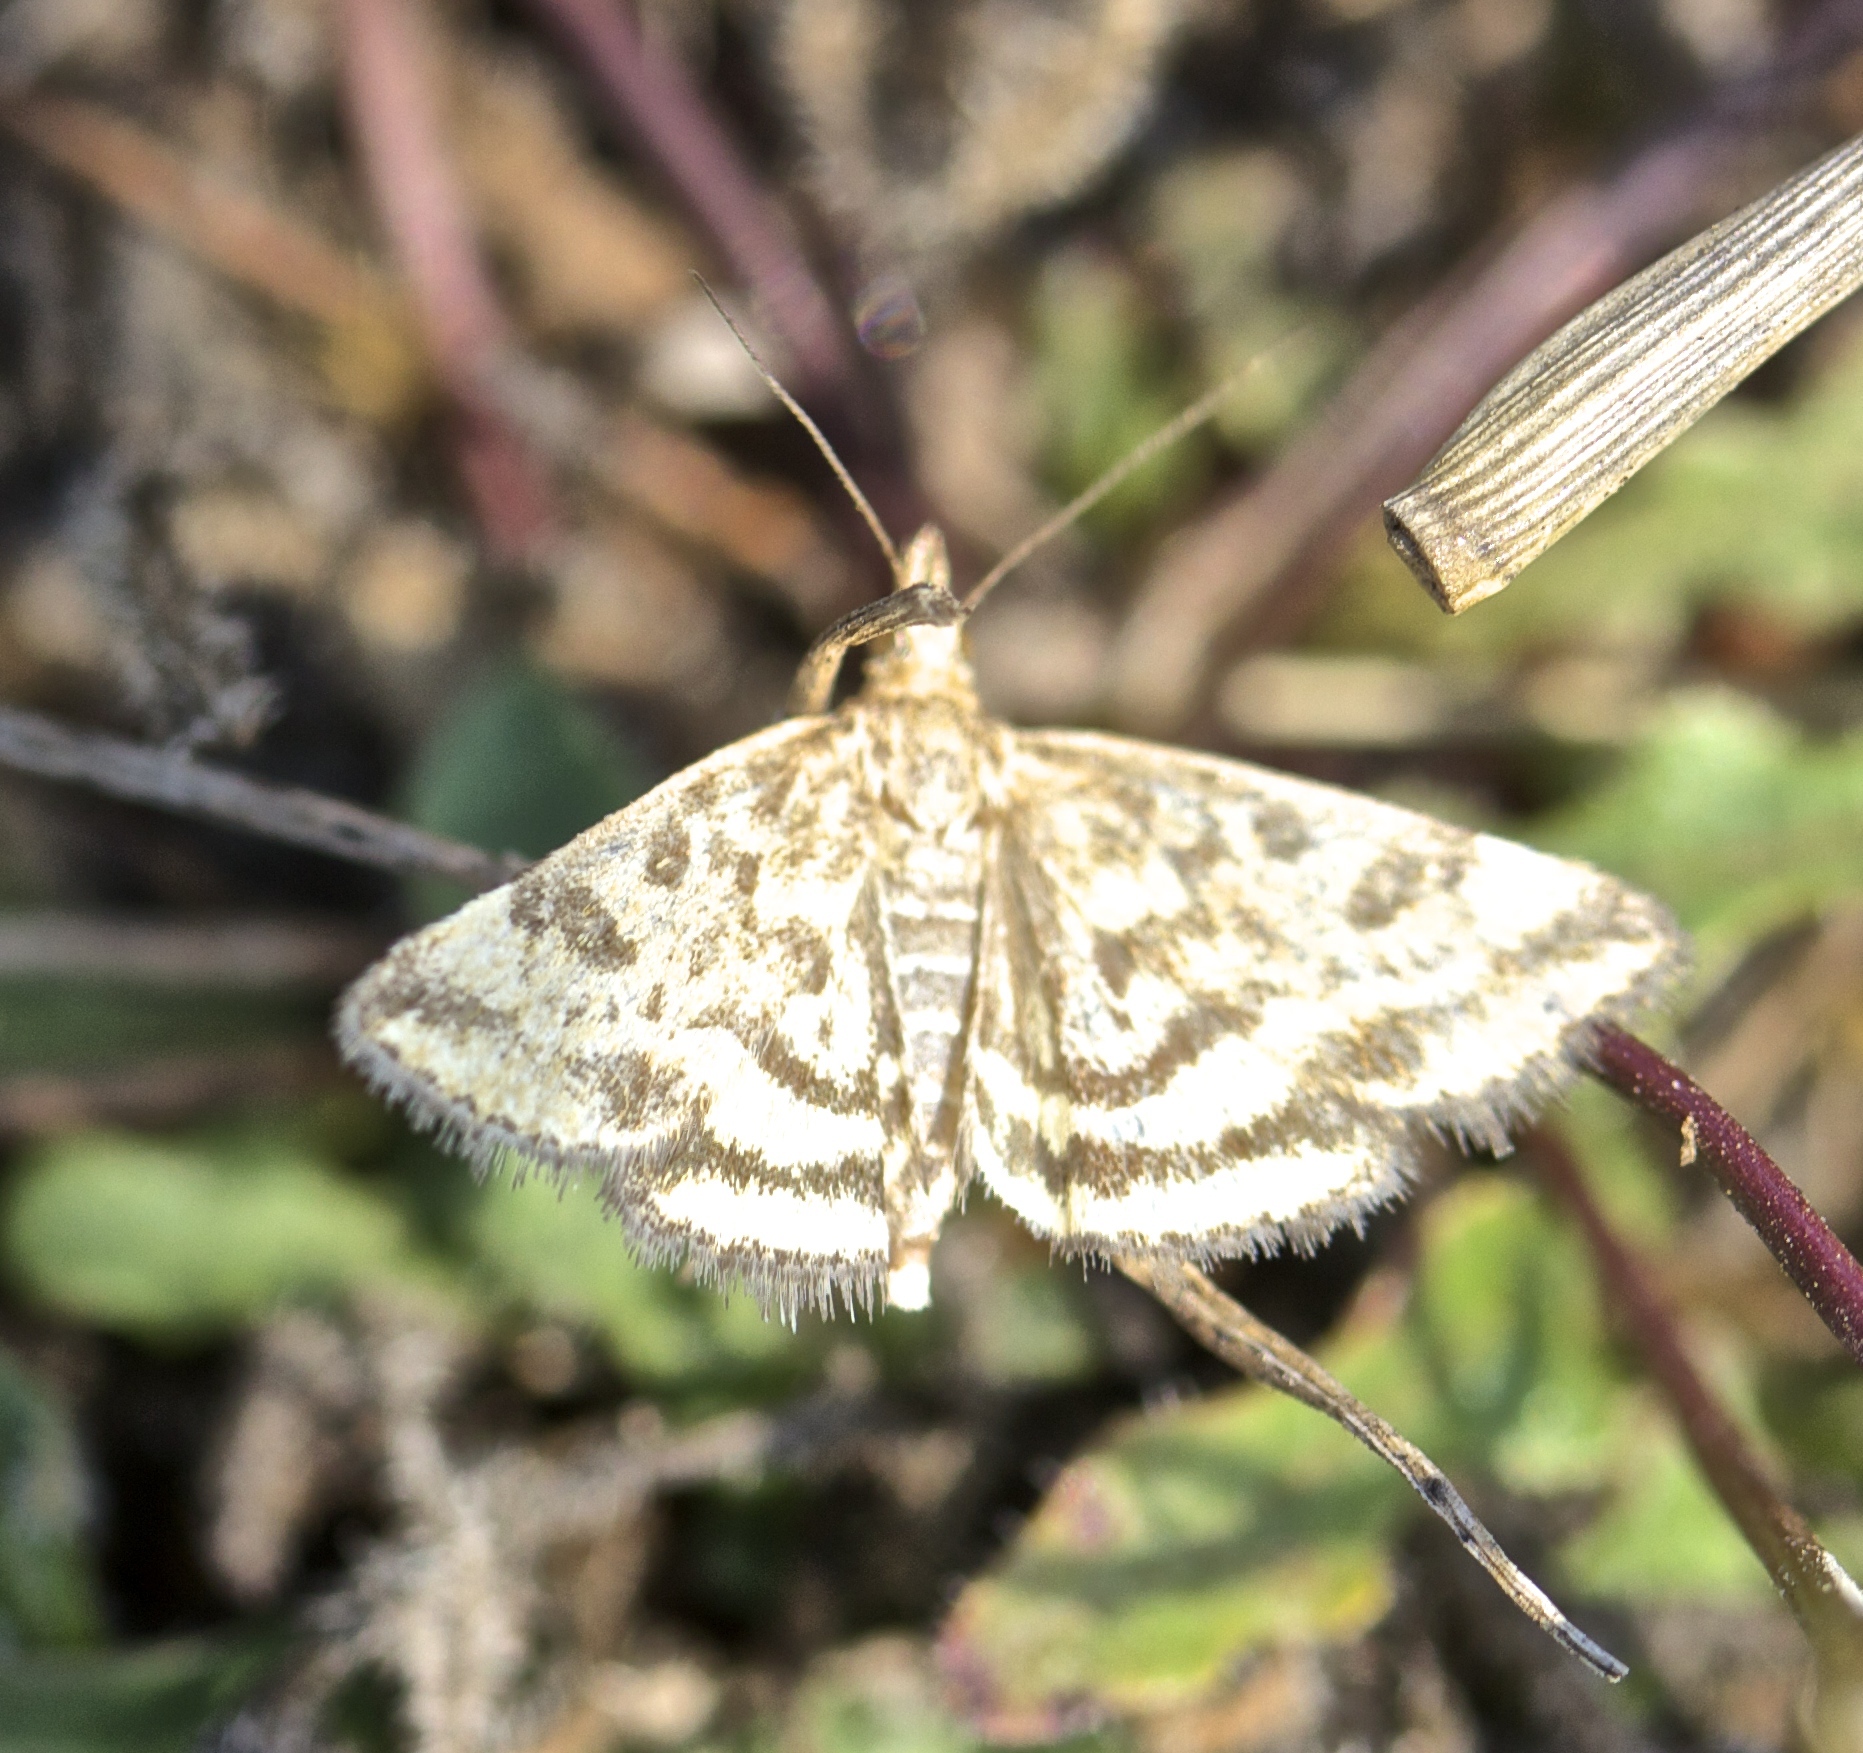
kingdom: Animalia
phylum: Arthropoda
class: Insecta
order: Lepidoptera
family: Crambidae
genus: Pyrausta
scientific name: Pyrausta subsequalis
